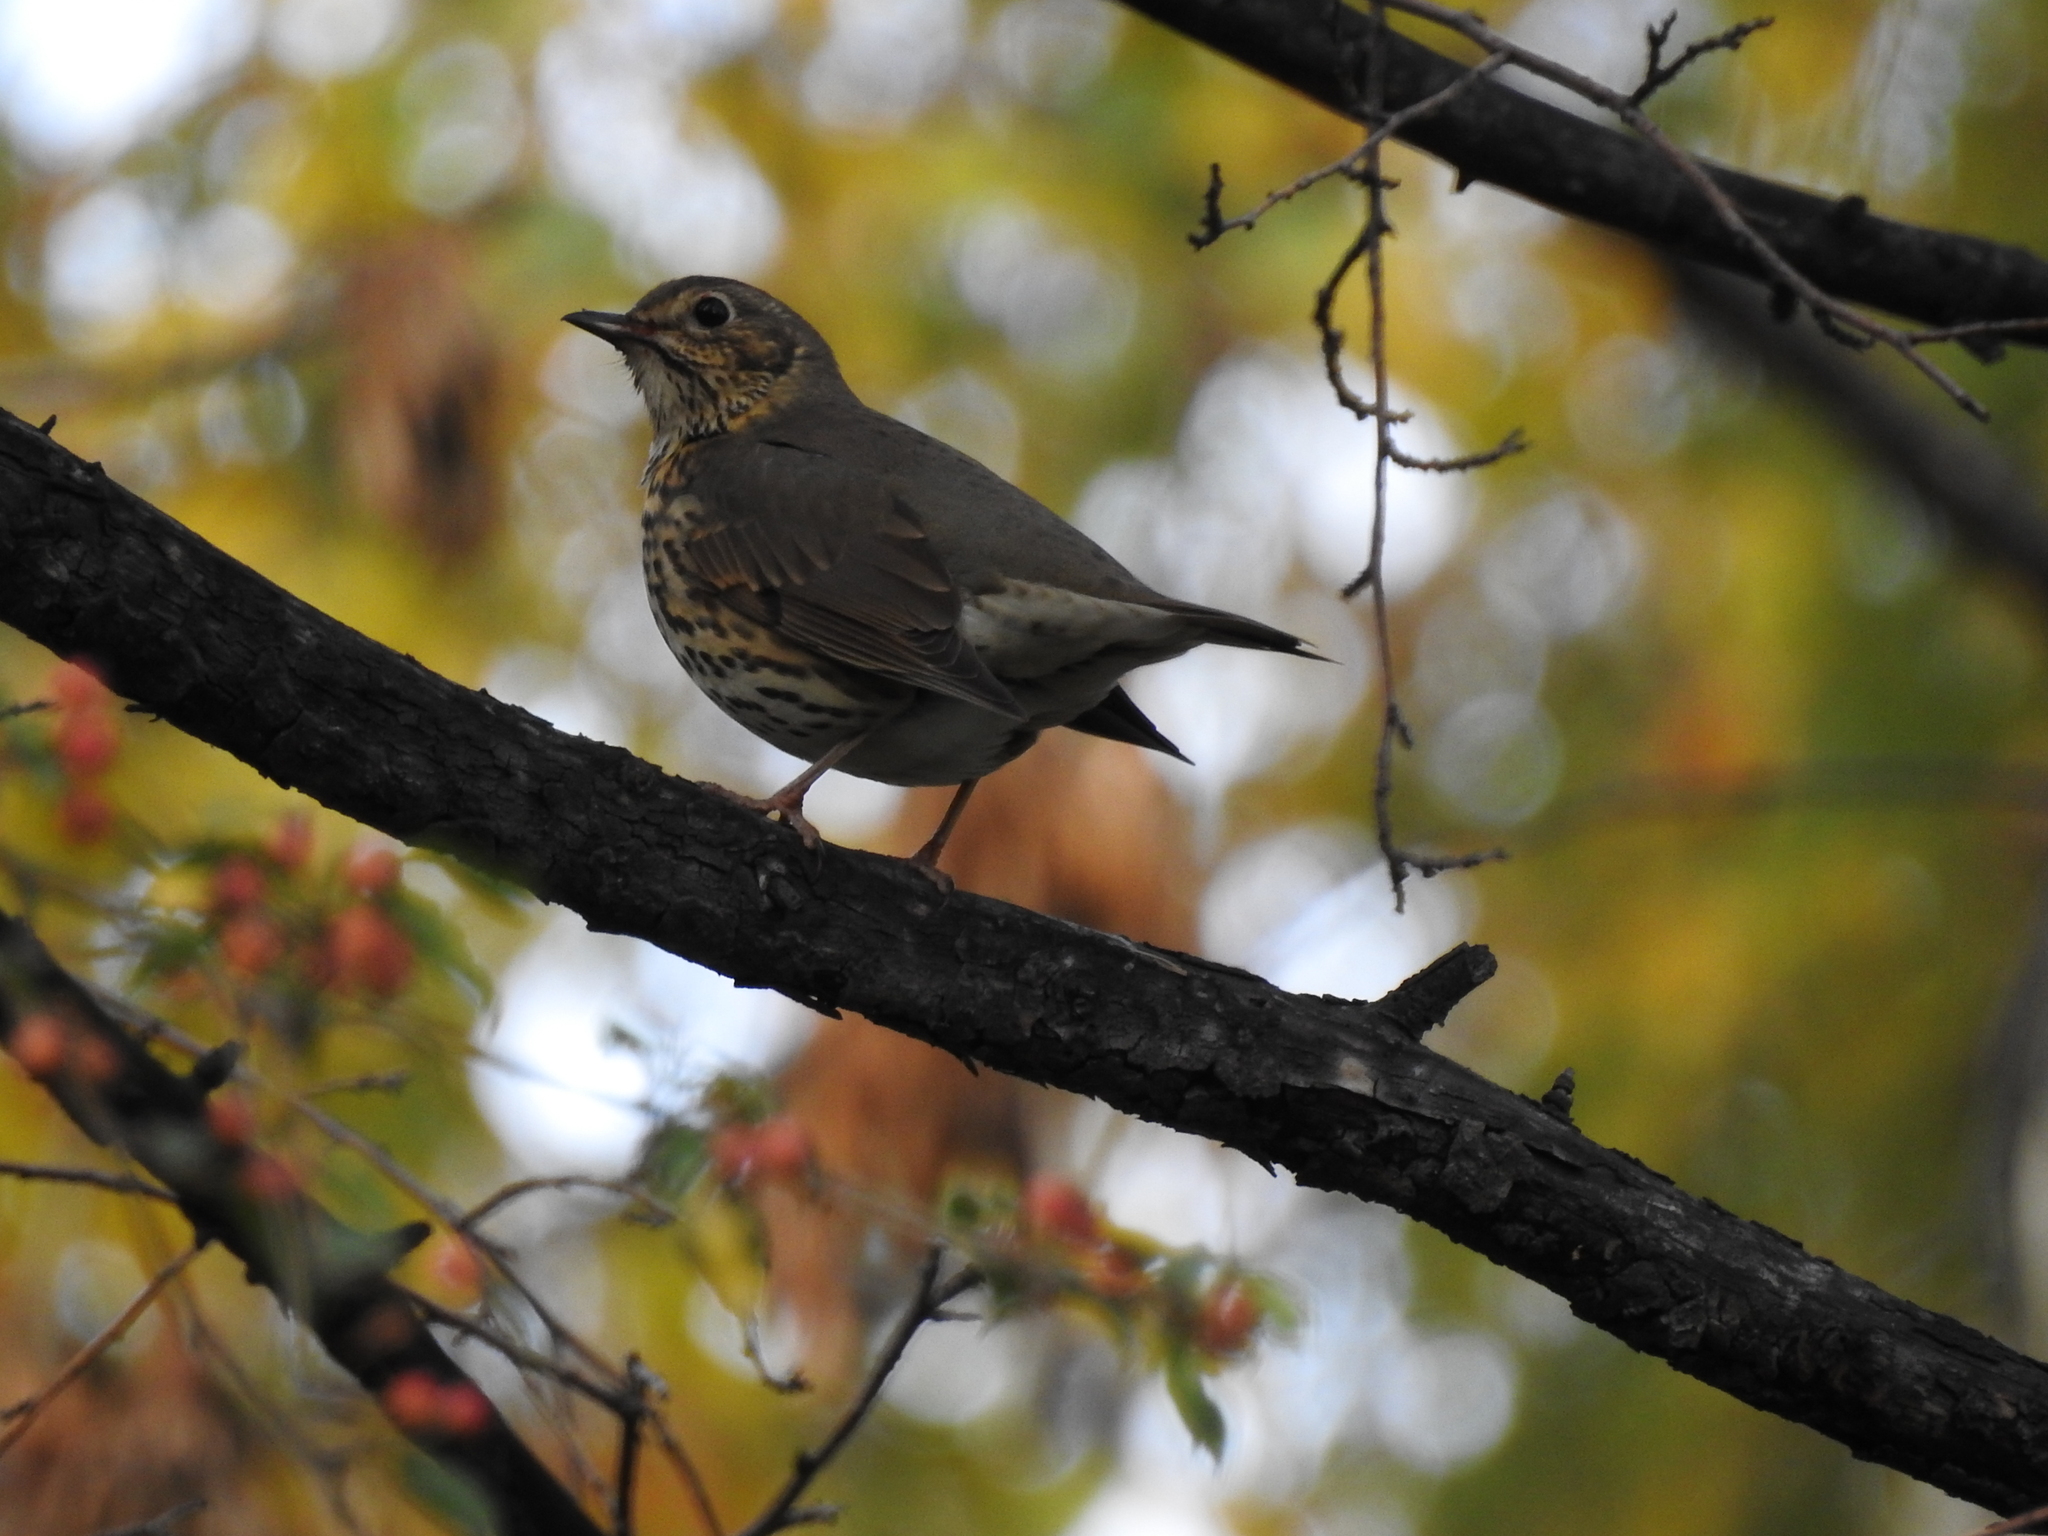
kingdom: Animalia
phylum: Chordata
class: Aves
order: Passeriformes
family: Turdidae
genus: Turdus
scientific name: Turdus philomelos
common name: Song thrush
